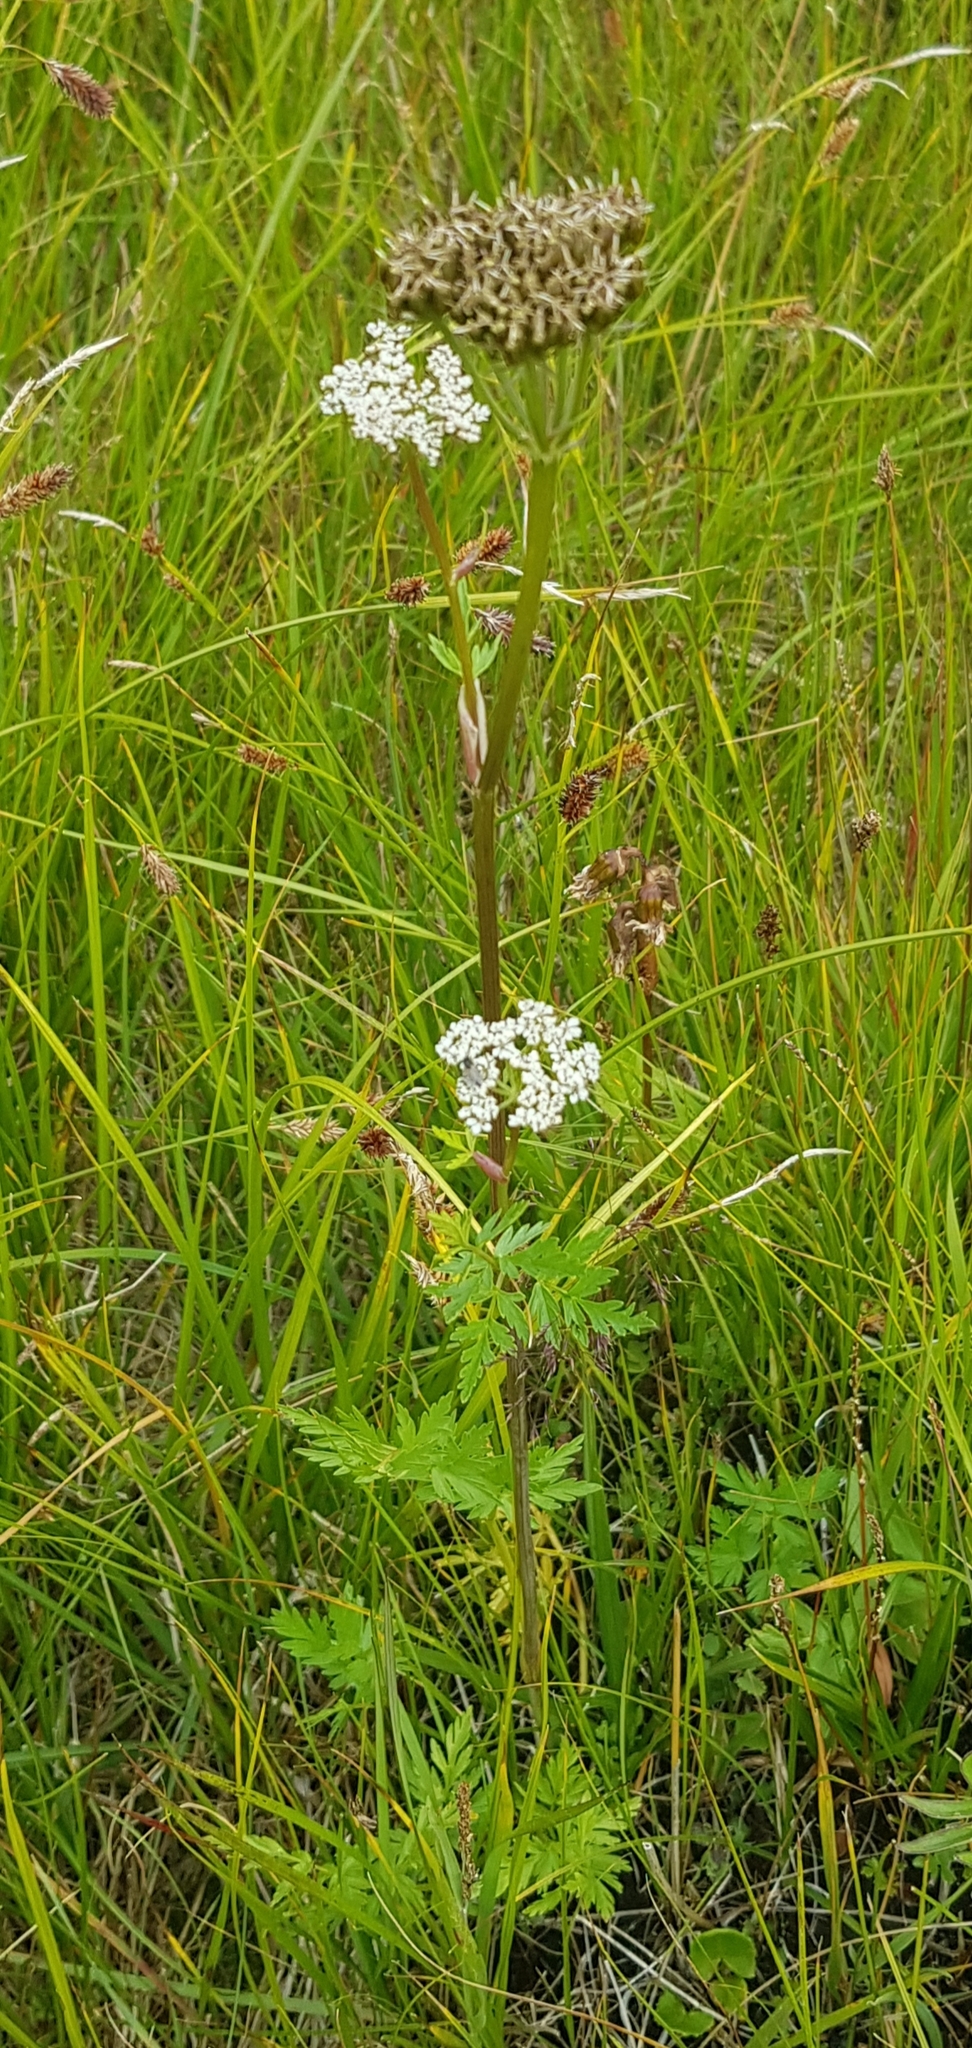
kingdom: Plantae
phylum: Tracheophyta
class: Magnoliopsida
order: Apiales
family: Apiaceae
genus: Conioselinum
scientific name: Conioselinum tataricum
